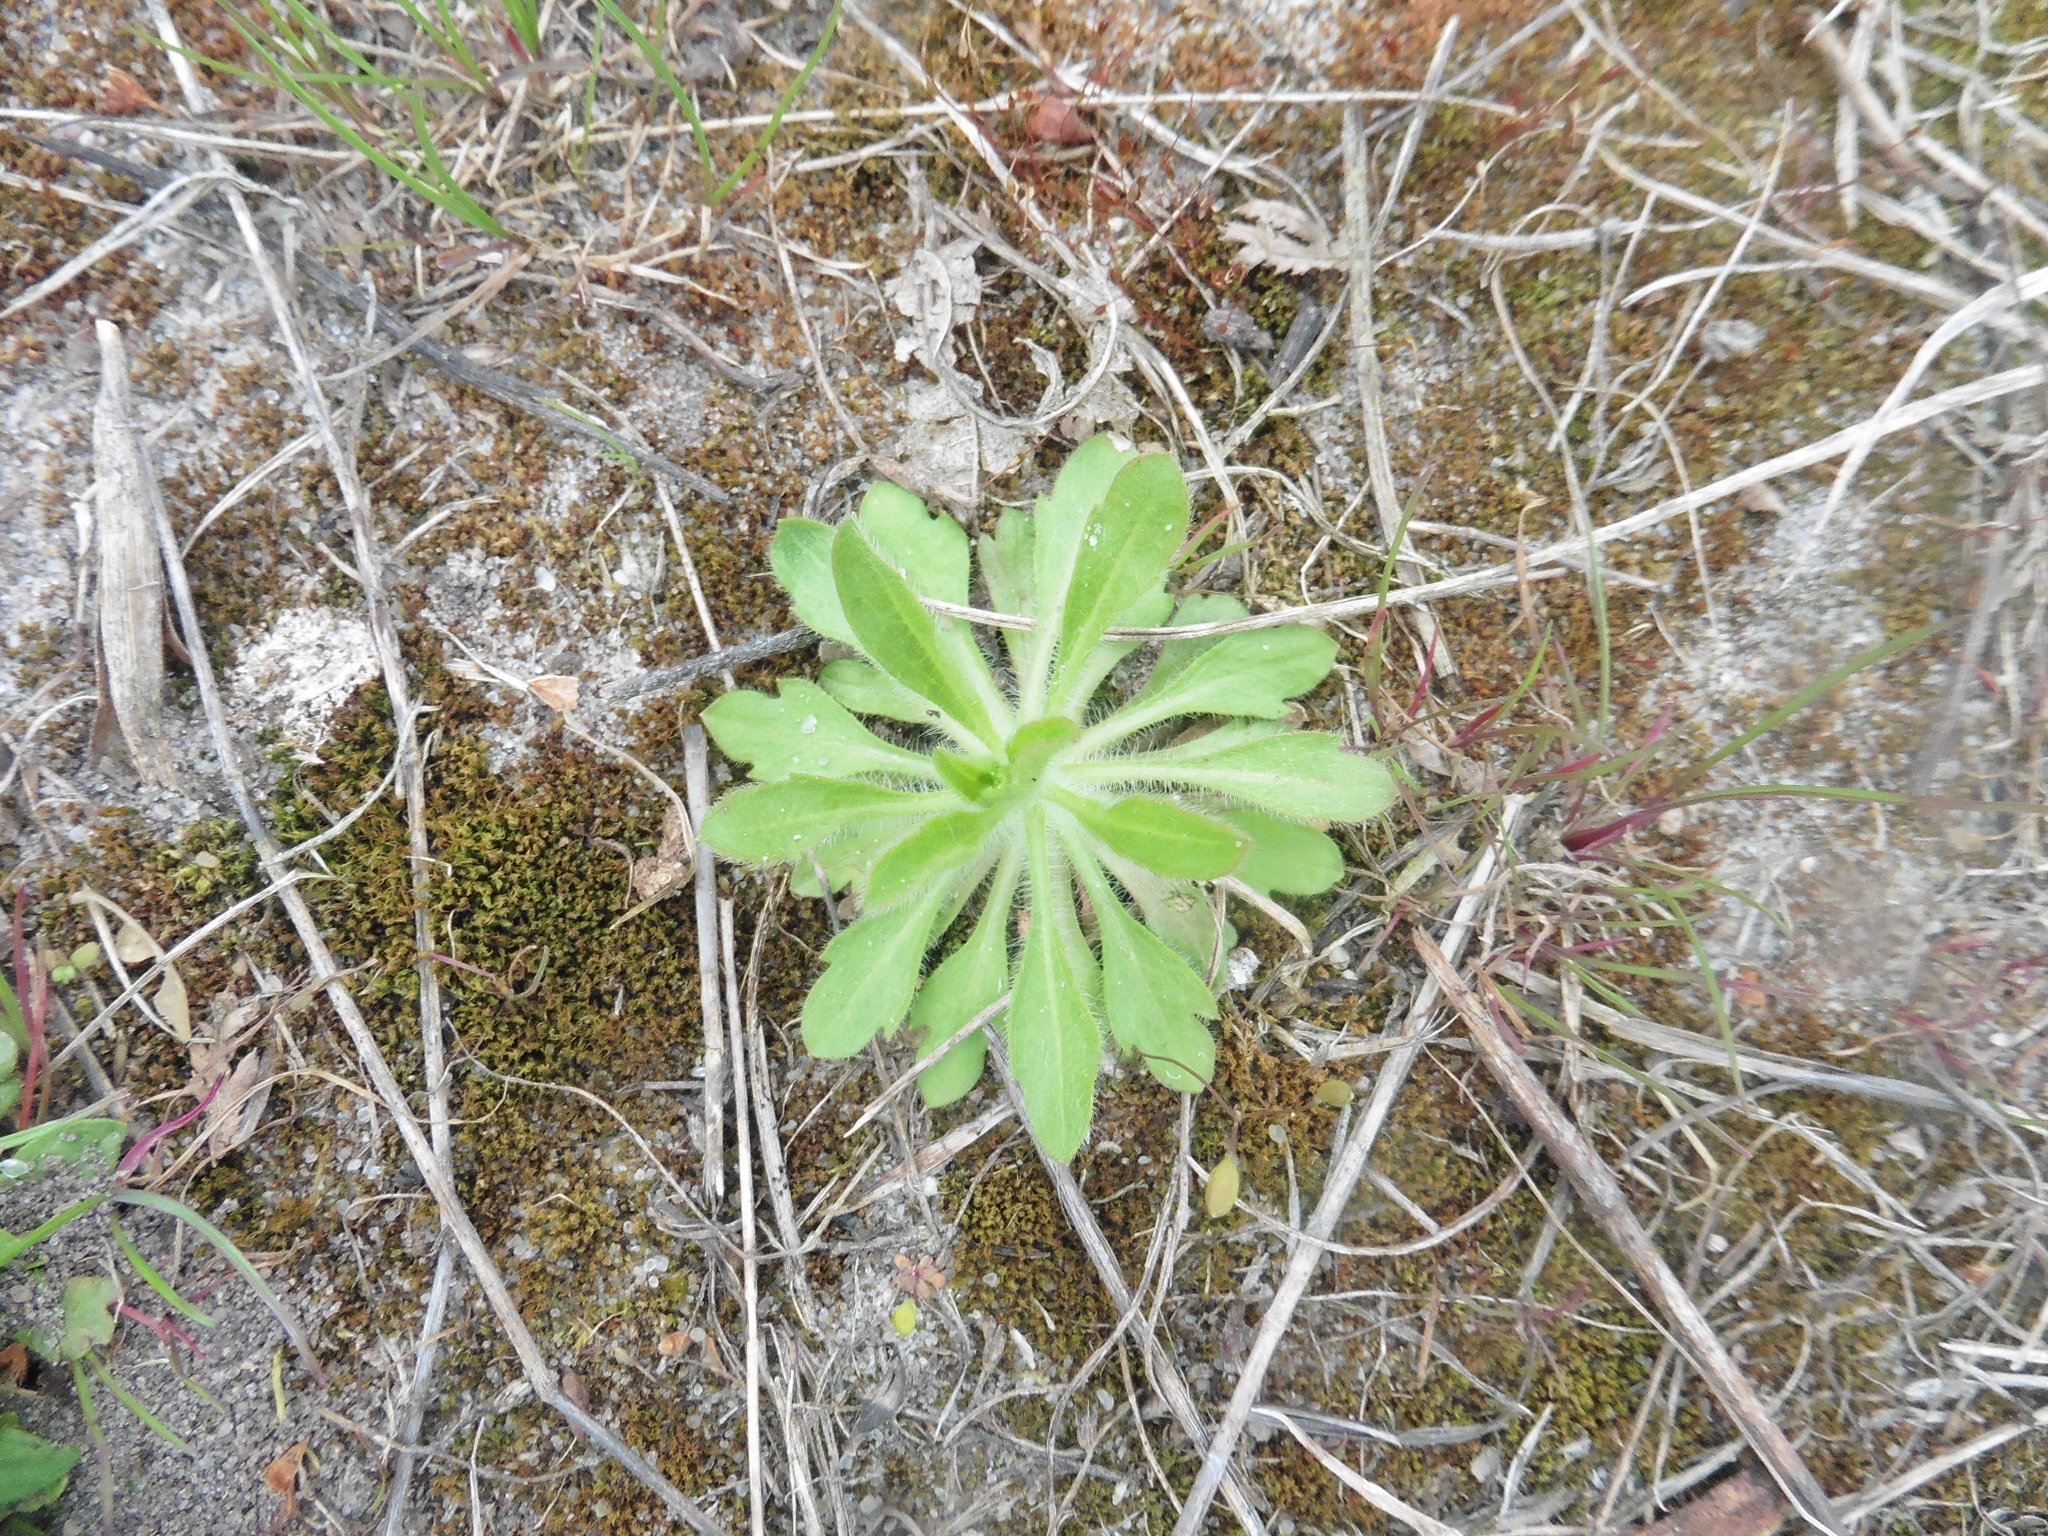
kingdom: Plantae
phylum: Tracheophyta
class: Magnoliopsida
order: Asterales
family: Asteraceae
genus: Erigeron
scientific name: Erigeron canadensis
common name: Canadian fleabane
